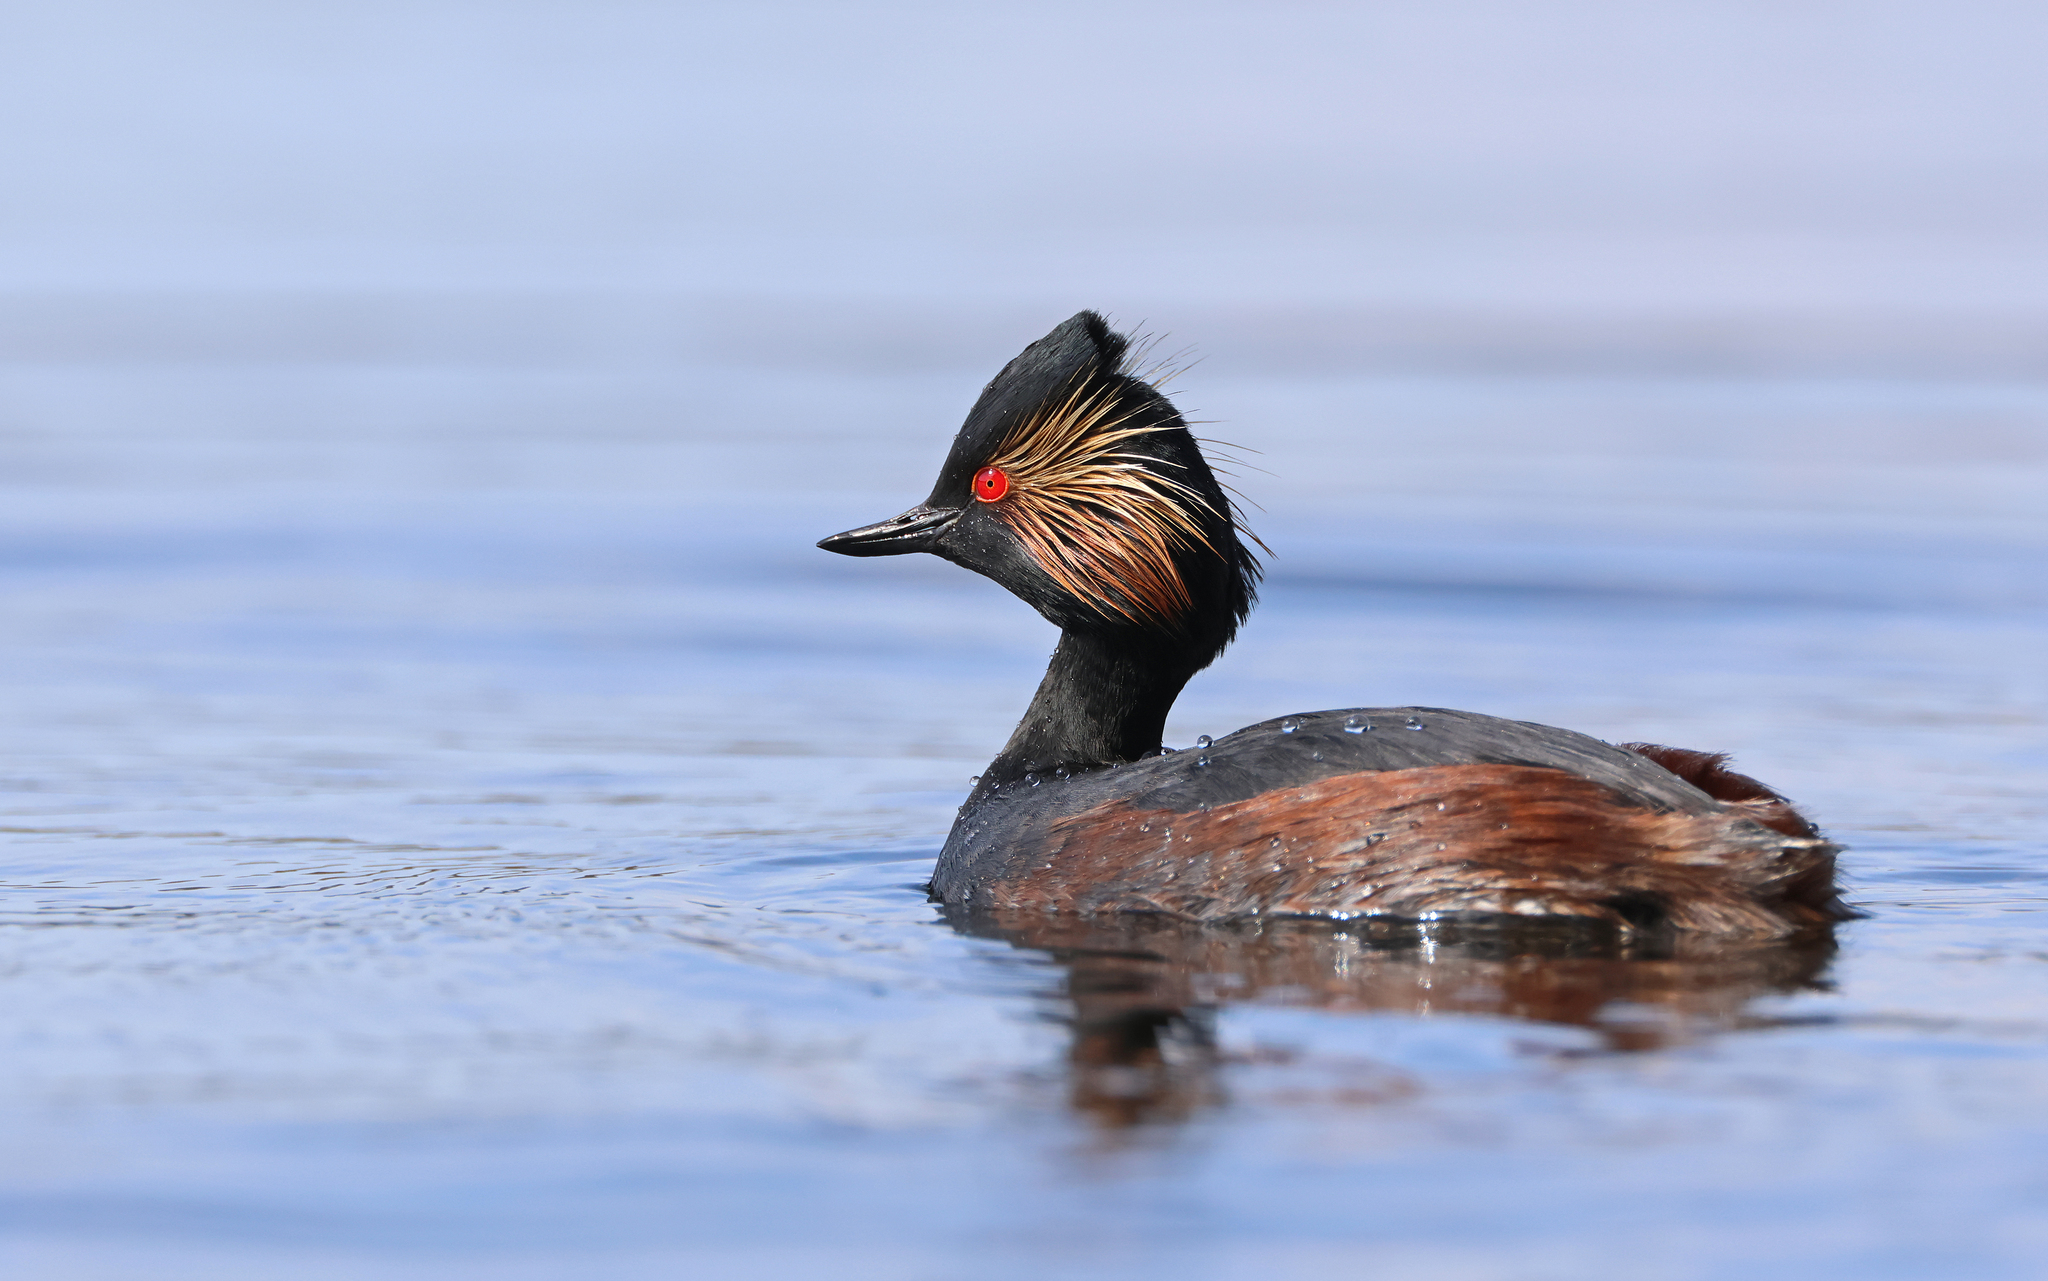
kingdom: Animalia
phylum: Chordata
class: Aves
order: Podicipediformes
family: Podicipedidae
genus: Podiceps
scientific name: Podiceps nigricollis
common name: Black-necked grebe
